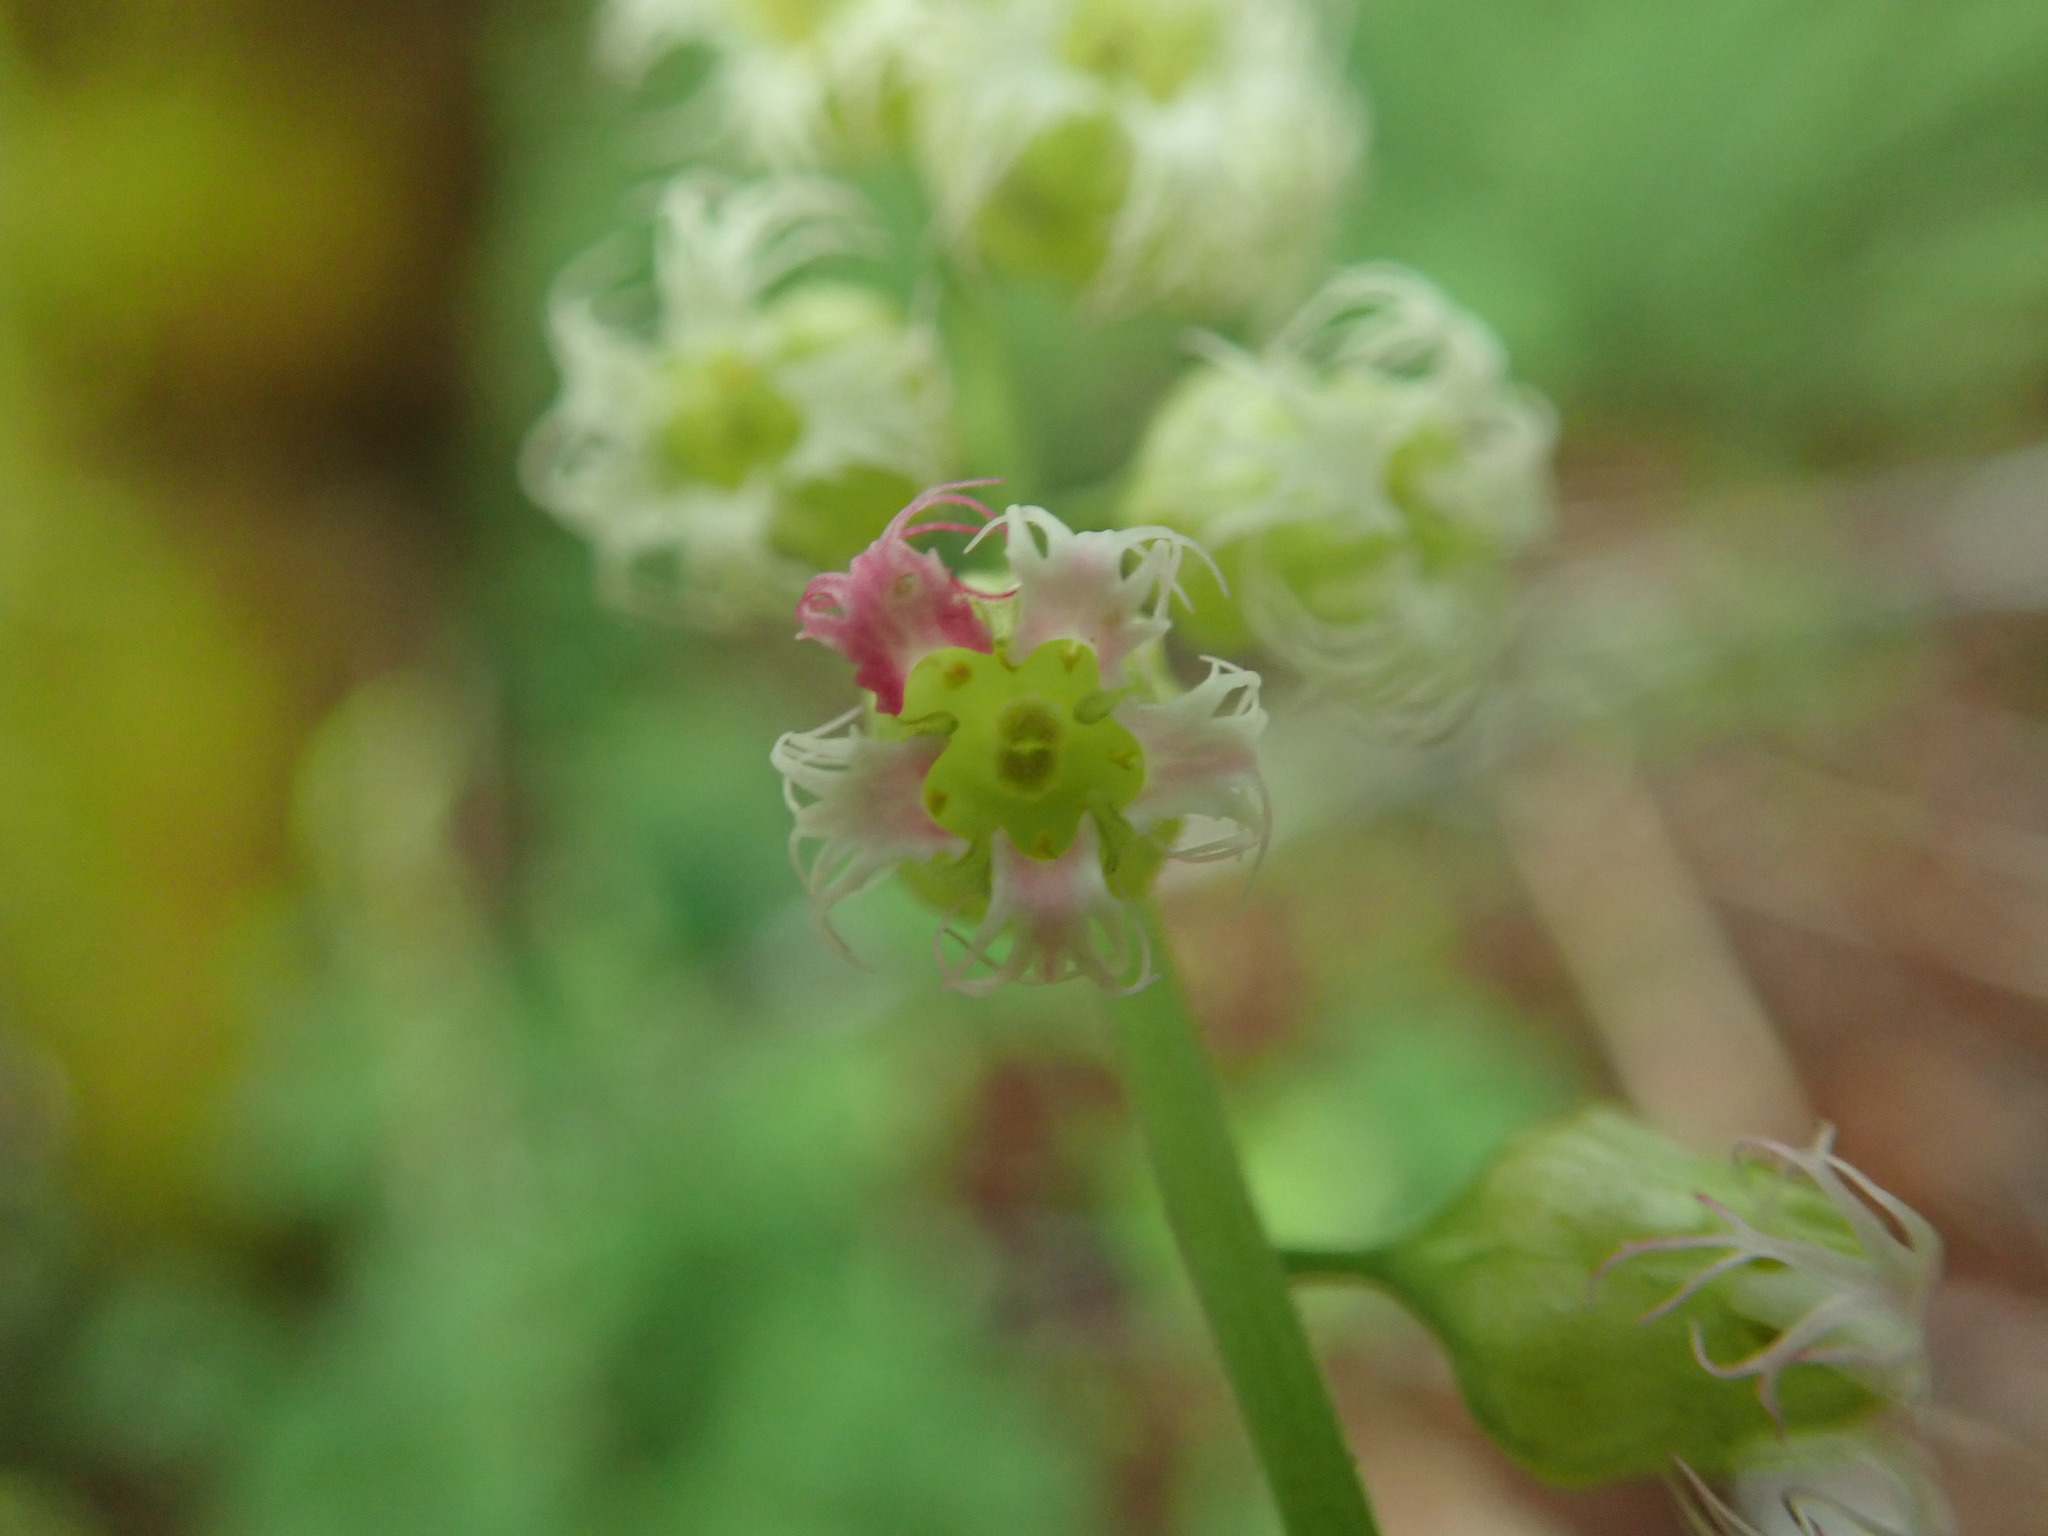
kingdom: Plantae
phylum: Tracheophyta
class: Magnoliopsida
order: Saxifragales
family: Saxifragaceae
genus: Tellima
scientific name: Tellima grandiflora
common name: Fringecups
